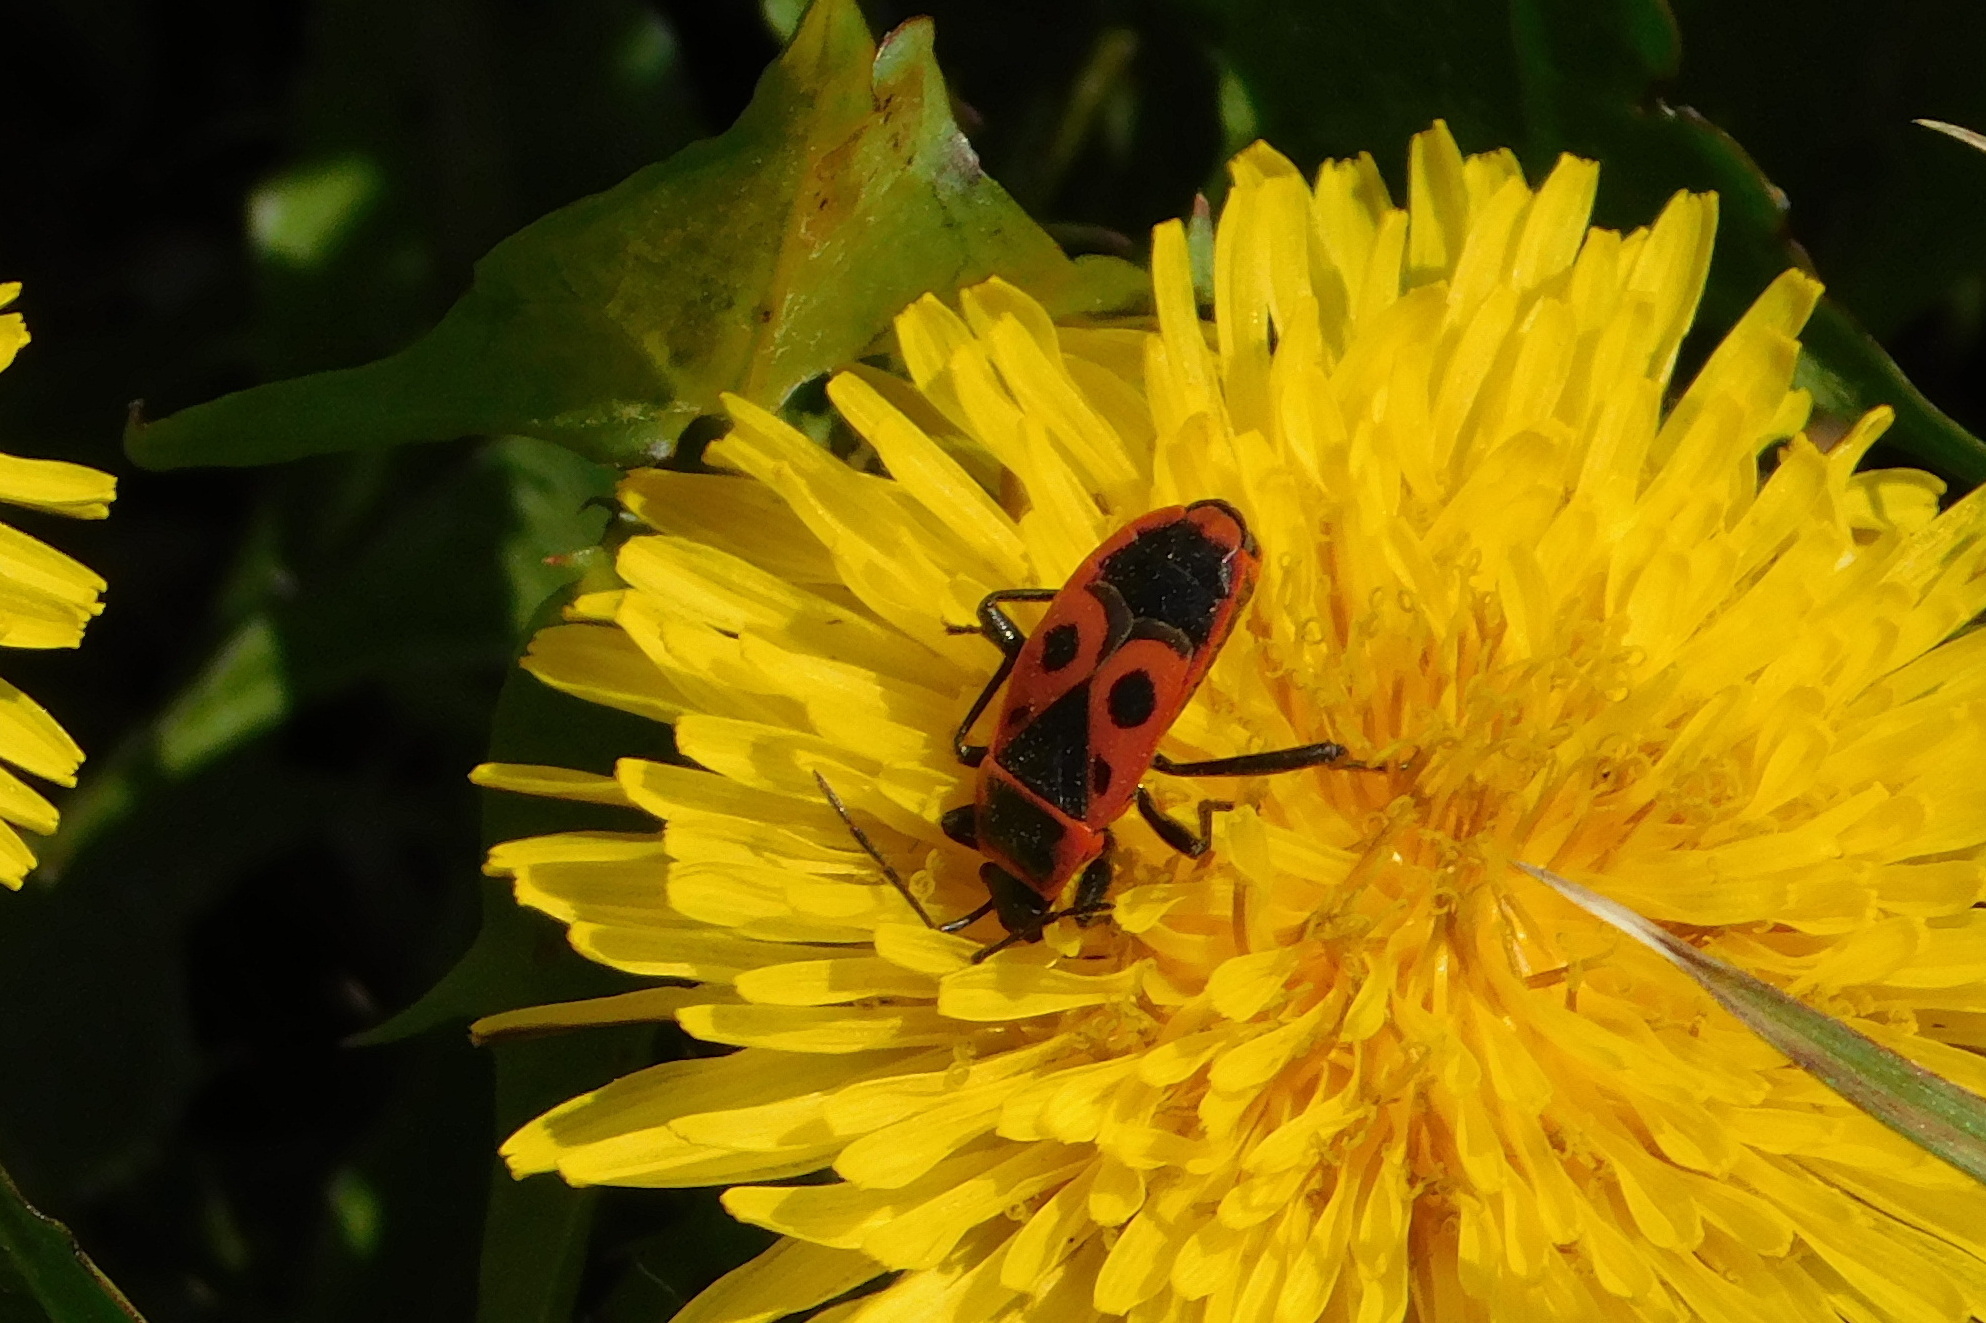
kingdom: Animalia
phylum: Arthropoda
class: Insecta
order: Hemiptera
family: Pyrrhocoridae
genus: Pyrrhocoris
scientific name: Pyrrhocoris apterus
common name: Firebug
